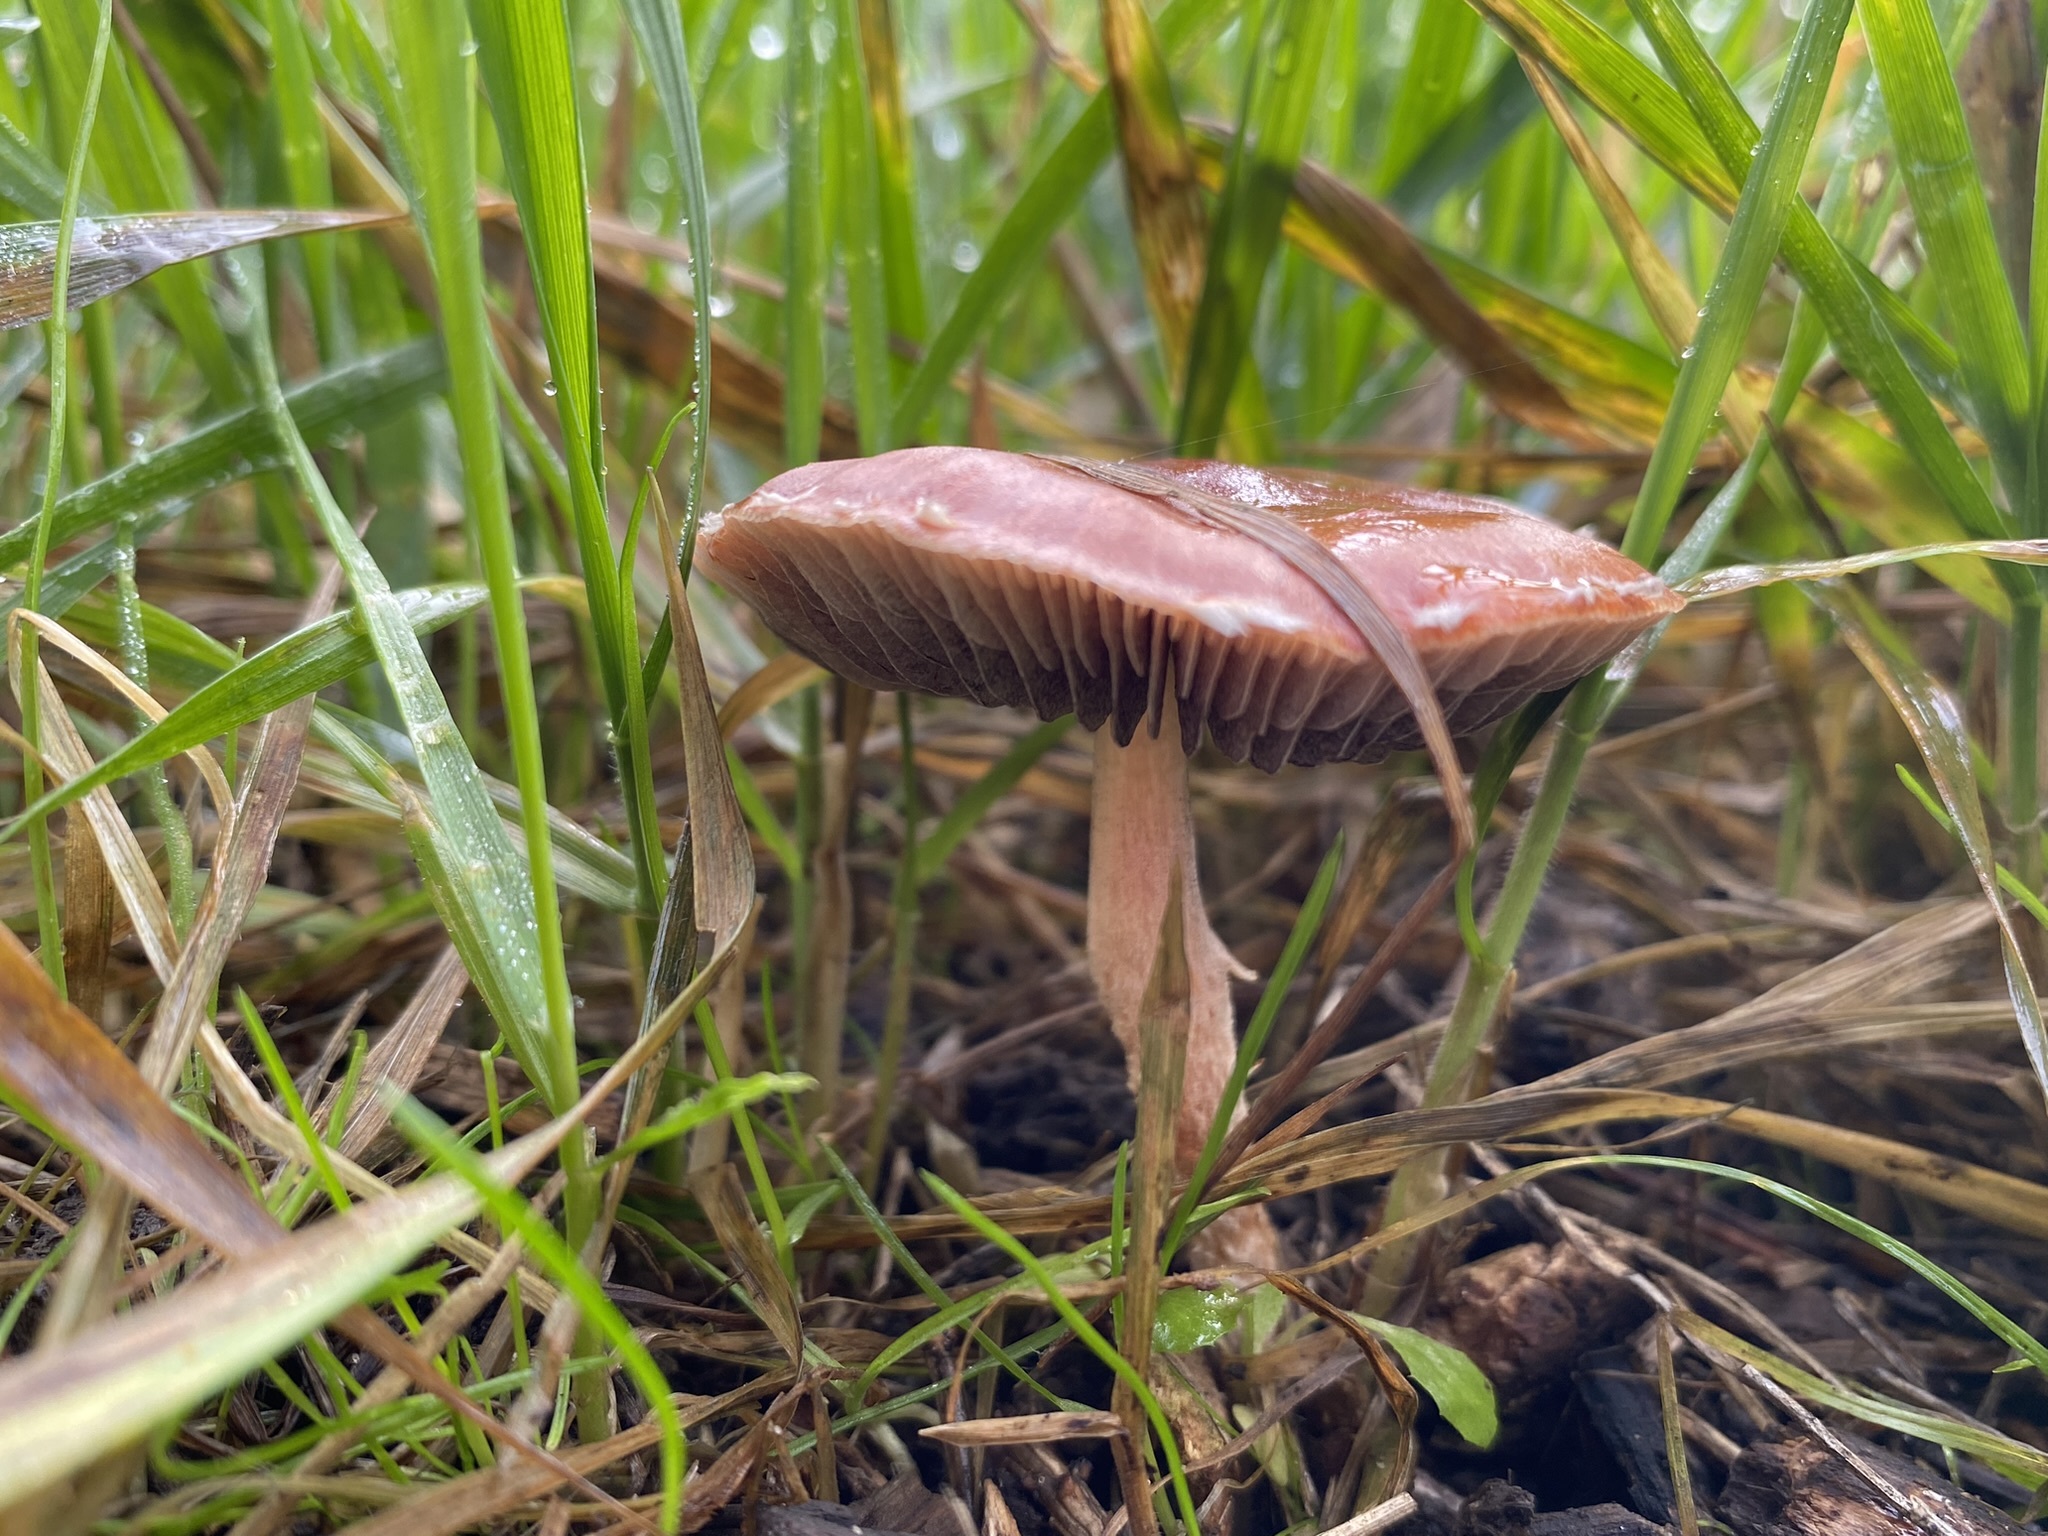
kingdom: Fungi
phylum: Basidiomycota
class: Agaricomycetes
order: Agaricales
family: Strophariaceae
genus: Leratiomyces
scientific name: Leratiomyces ceres
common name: Redlead roundhead
